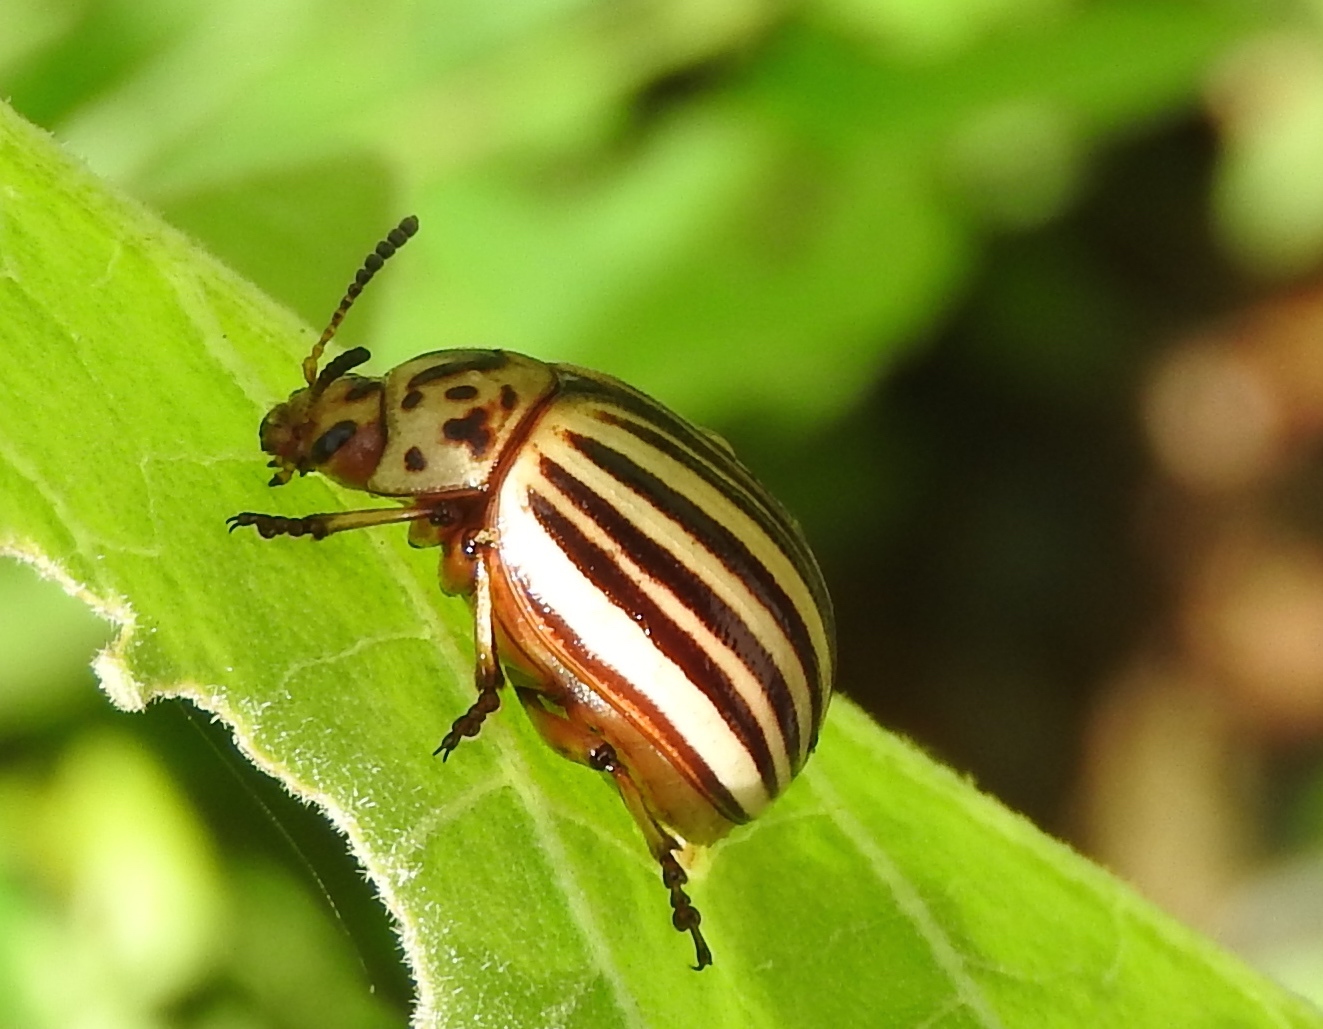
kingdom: Animalia
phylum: Arthropoda
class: Insecta
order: Coleoptera
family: Chrysomelidae
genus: Leptinotarsa
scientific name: Leptinotarsa decemlineata
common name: Colorado potato beetle
